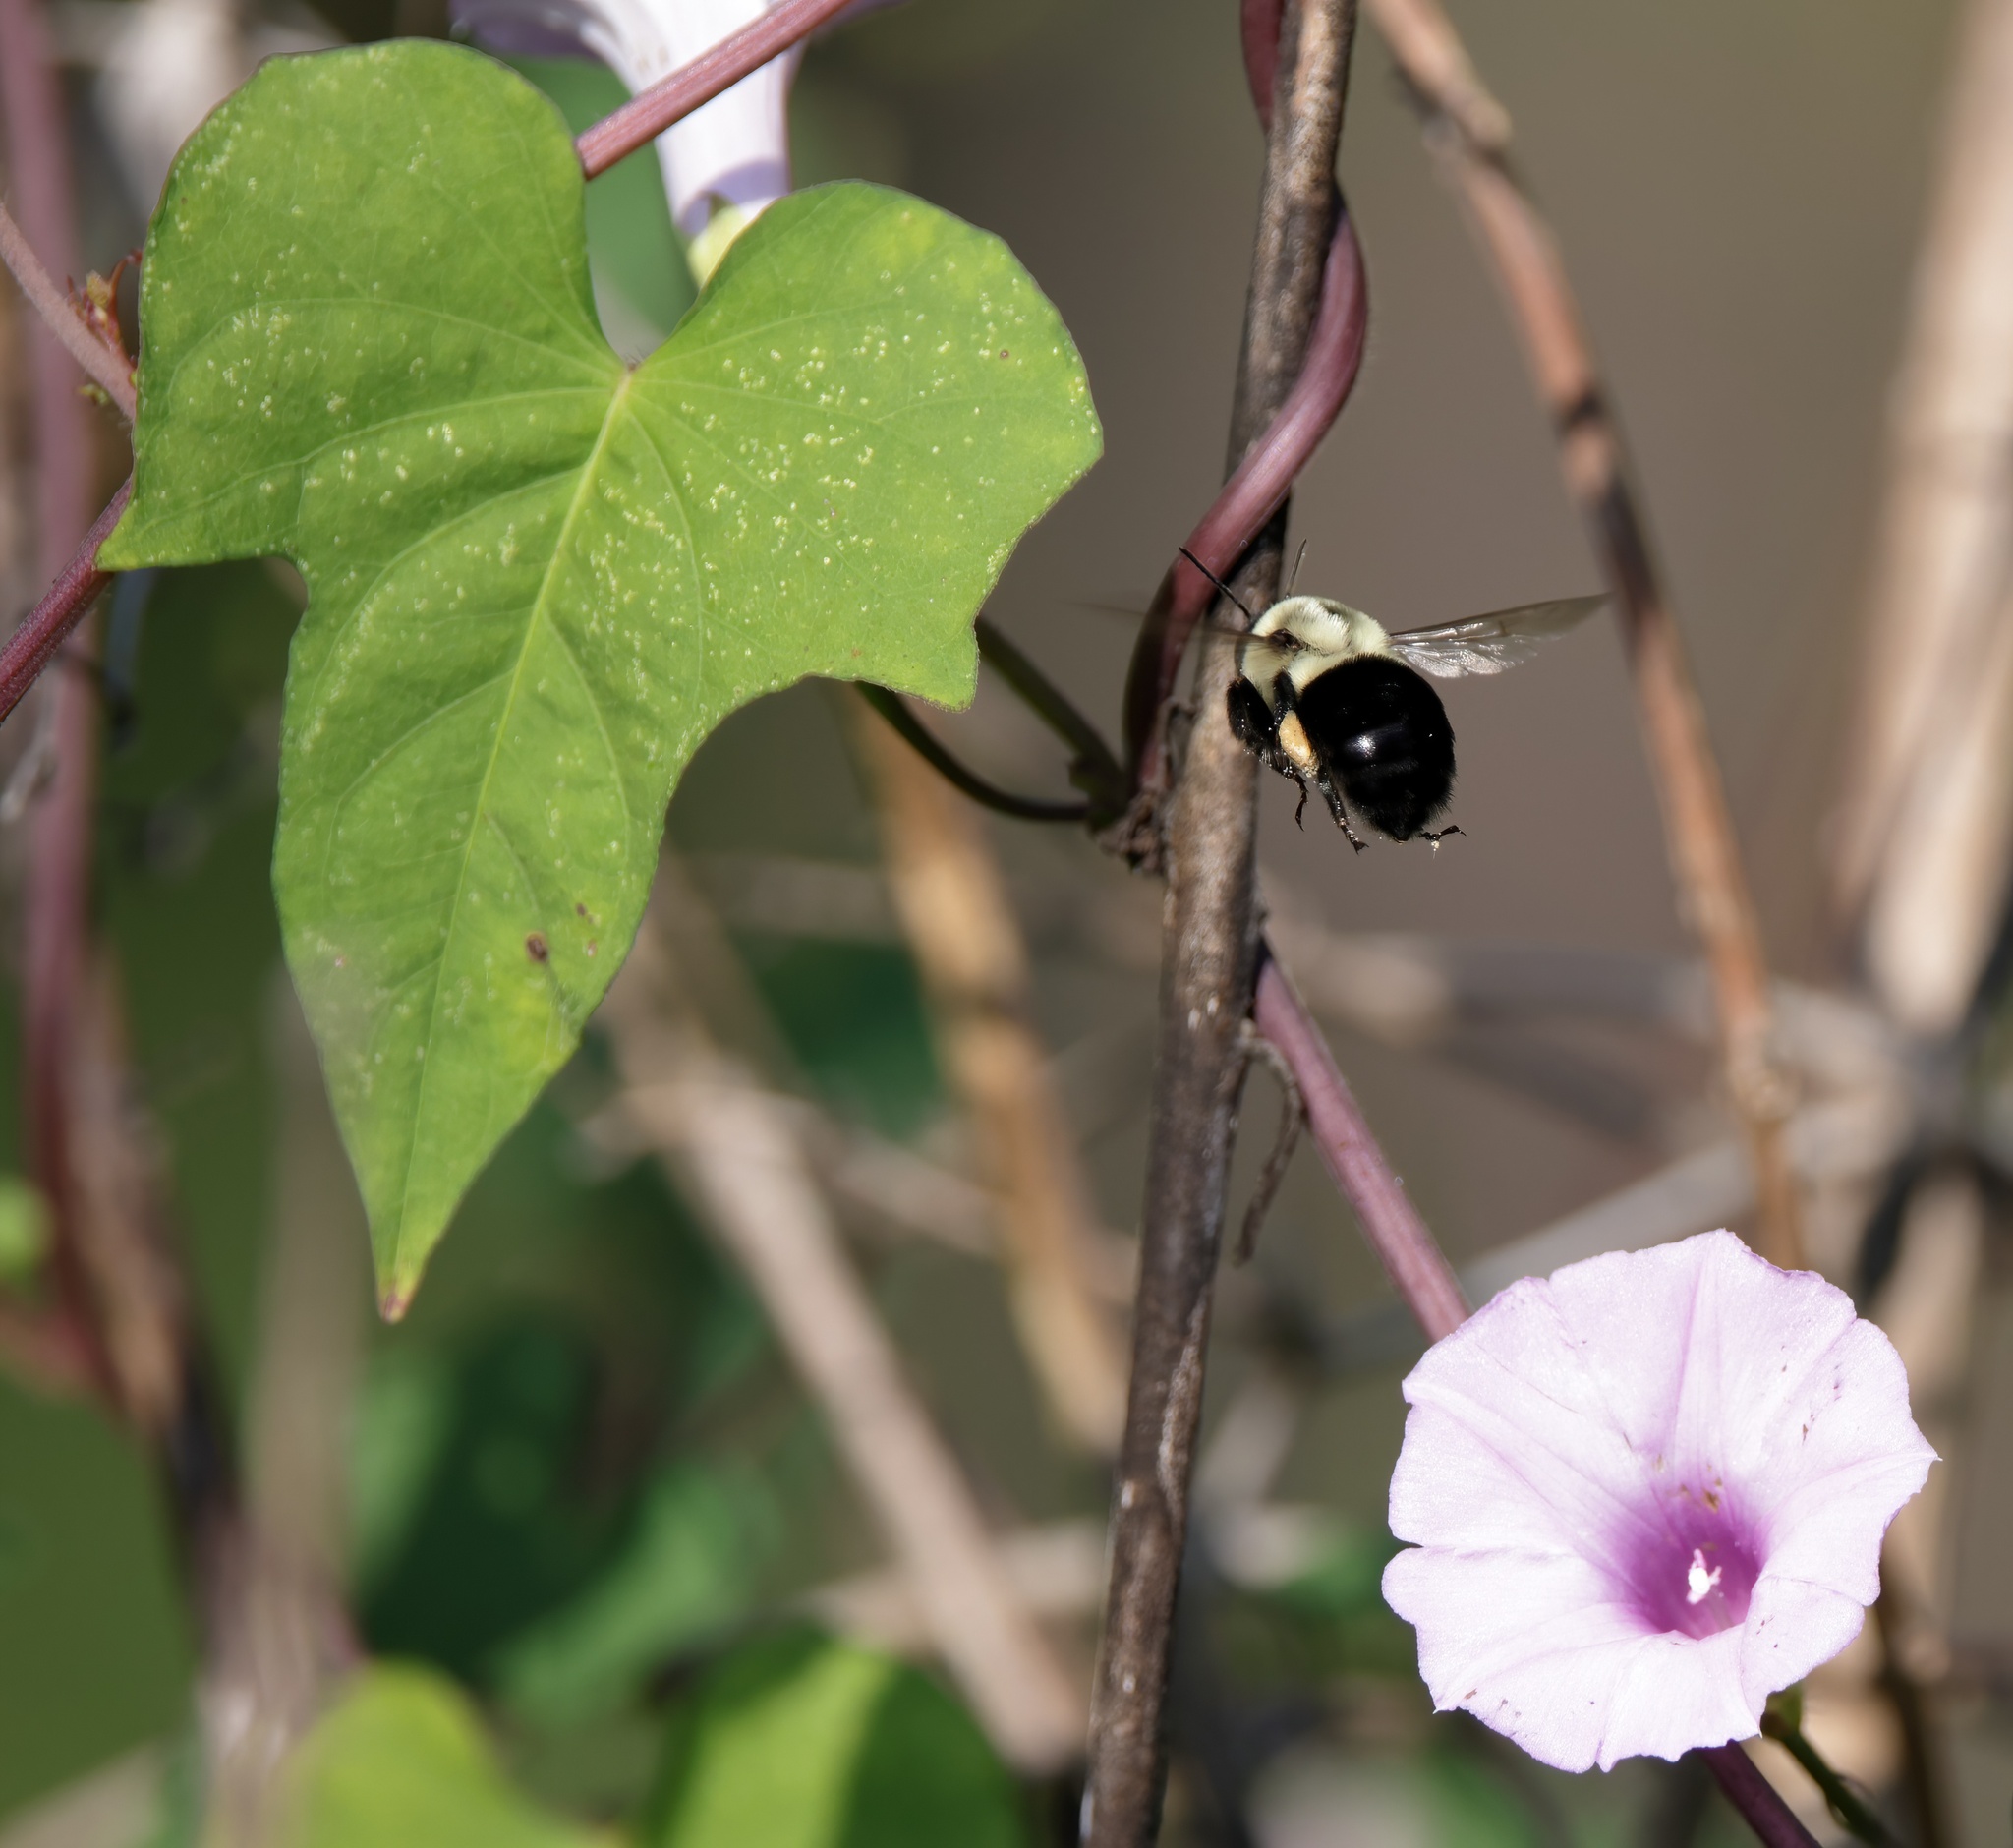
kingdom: Plantae
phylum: Tracheophyta
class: Magnoliopsida
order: Solanales
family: Convolvulaceae
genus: Ipomoea
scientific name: Ipomoea cordatotriloba
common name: Cotton morning glory
